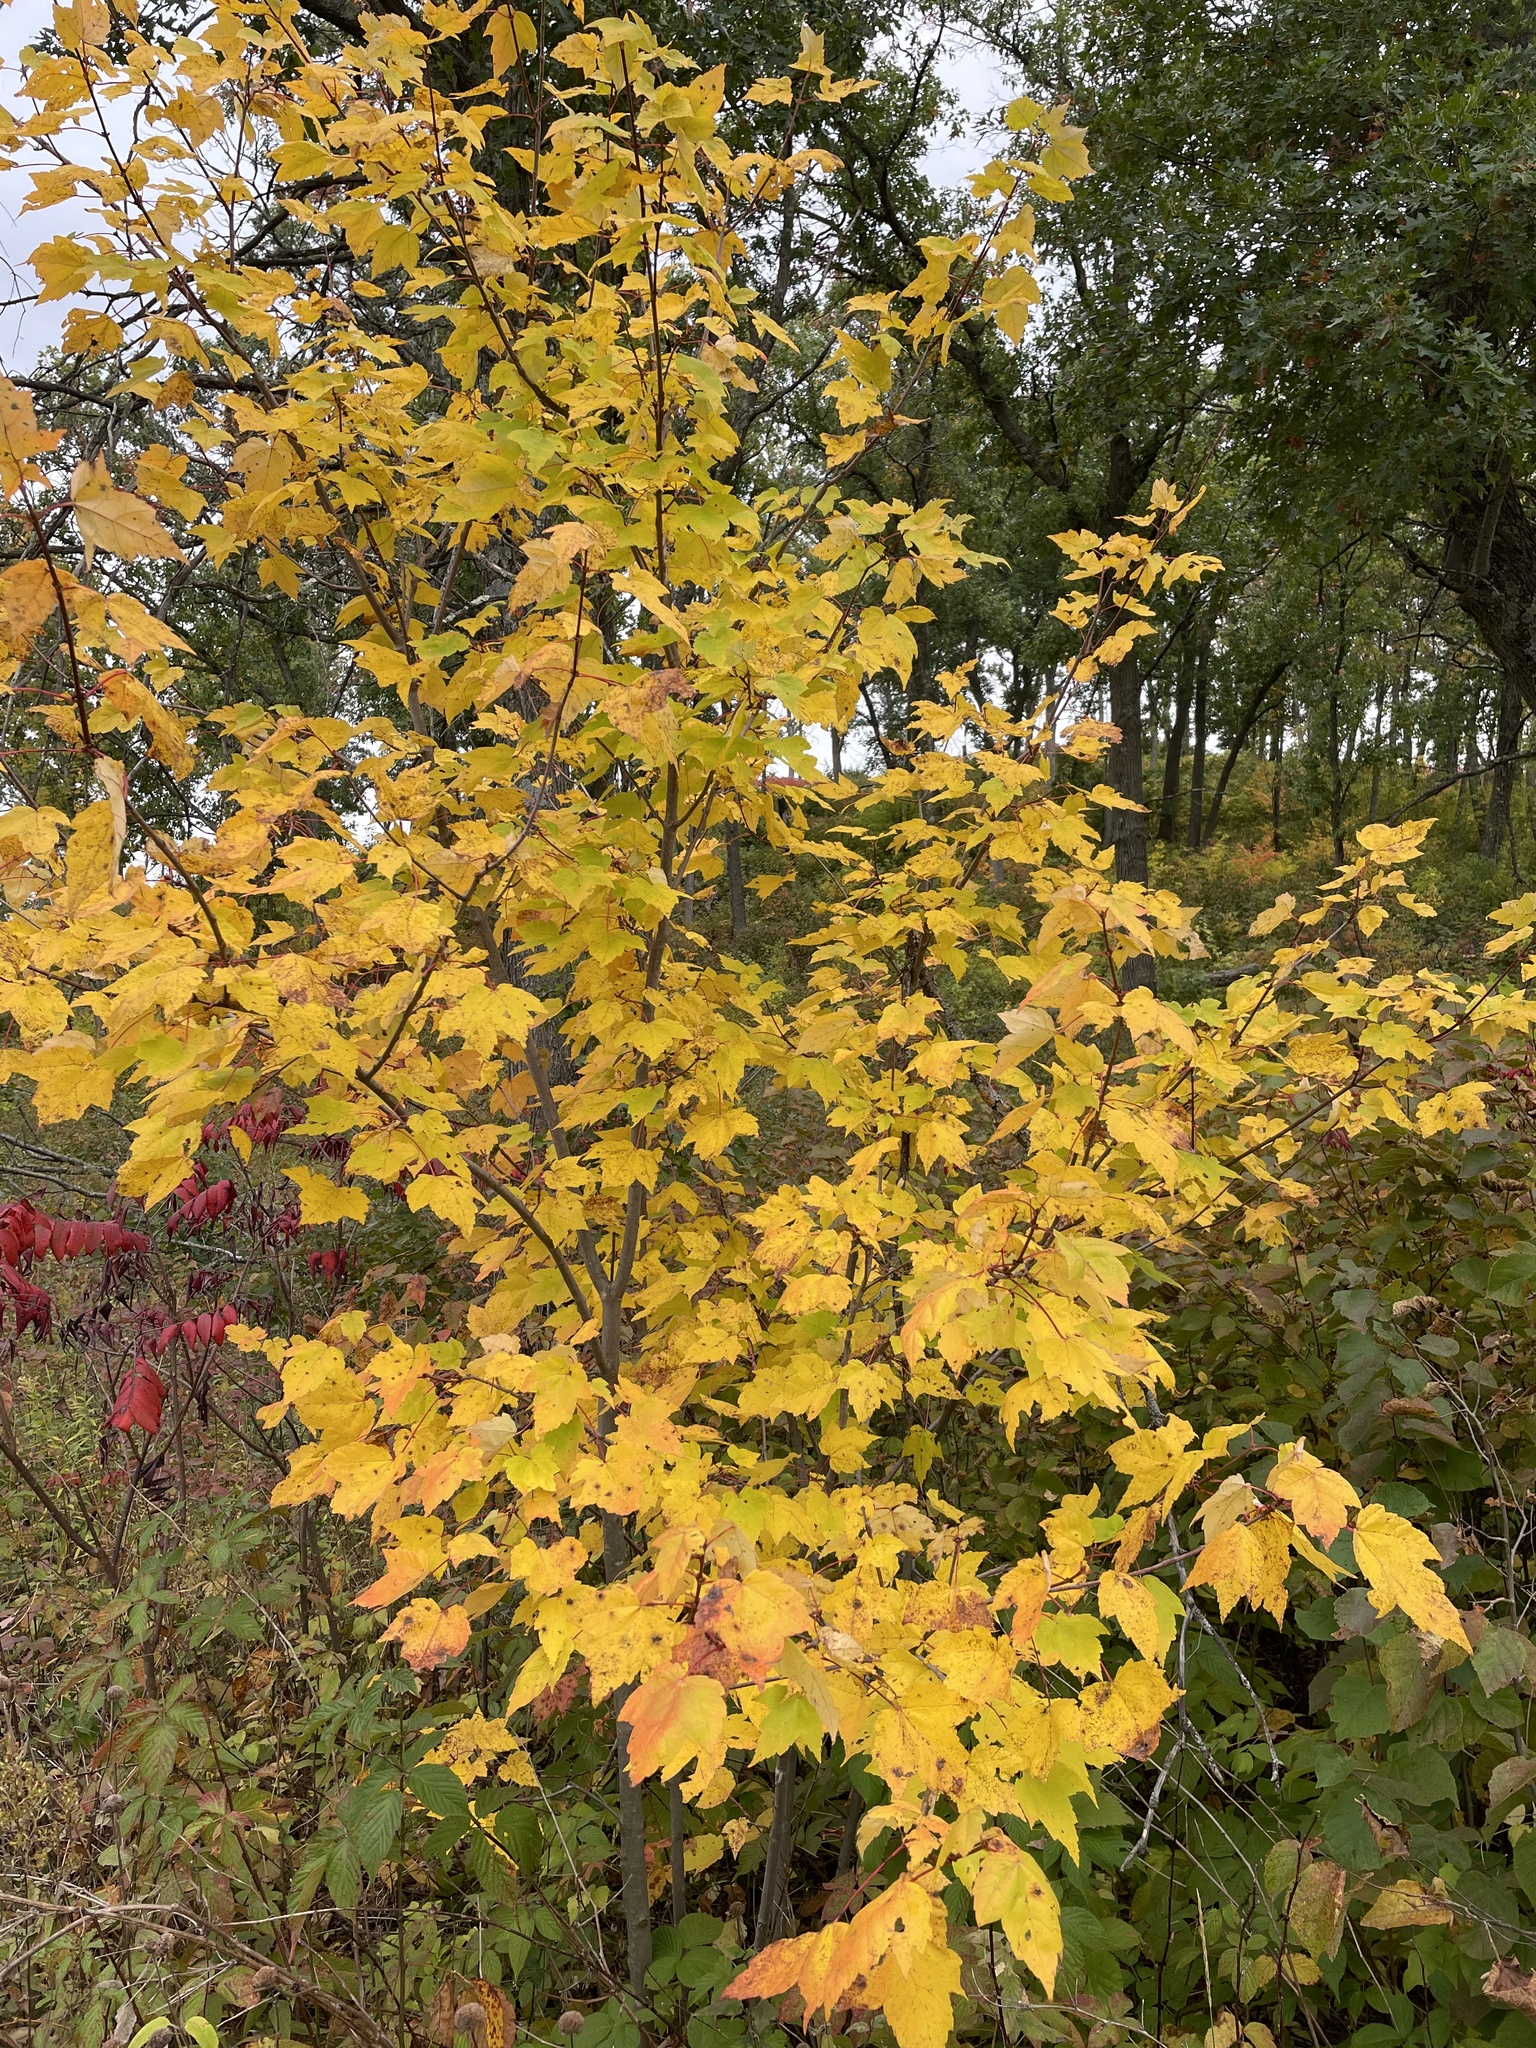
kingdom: Plantae
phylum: Tracheophyta
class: Magnoliopsida
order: Sapindales
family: Sapindaceae
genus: Acer
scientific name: Acer rubrum
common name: Red maple
